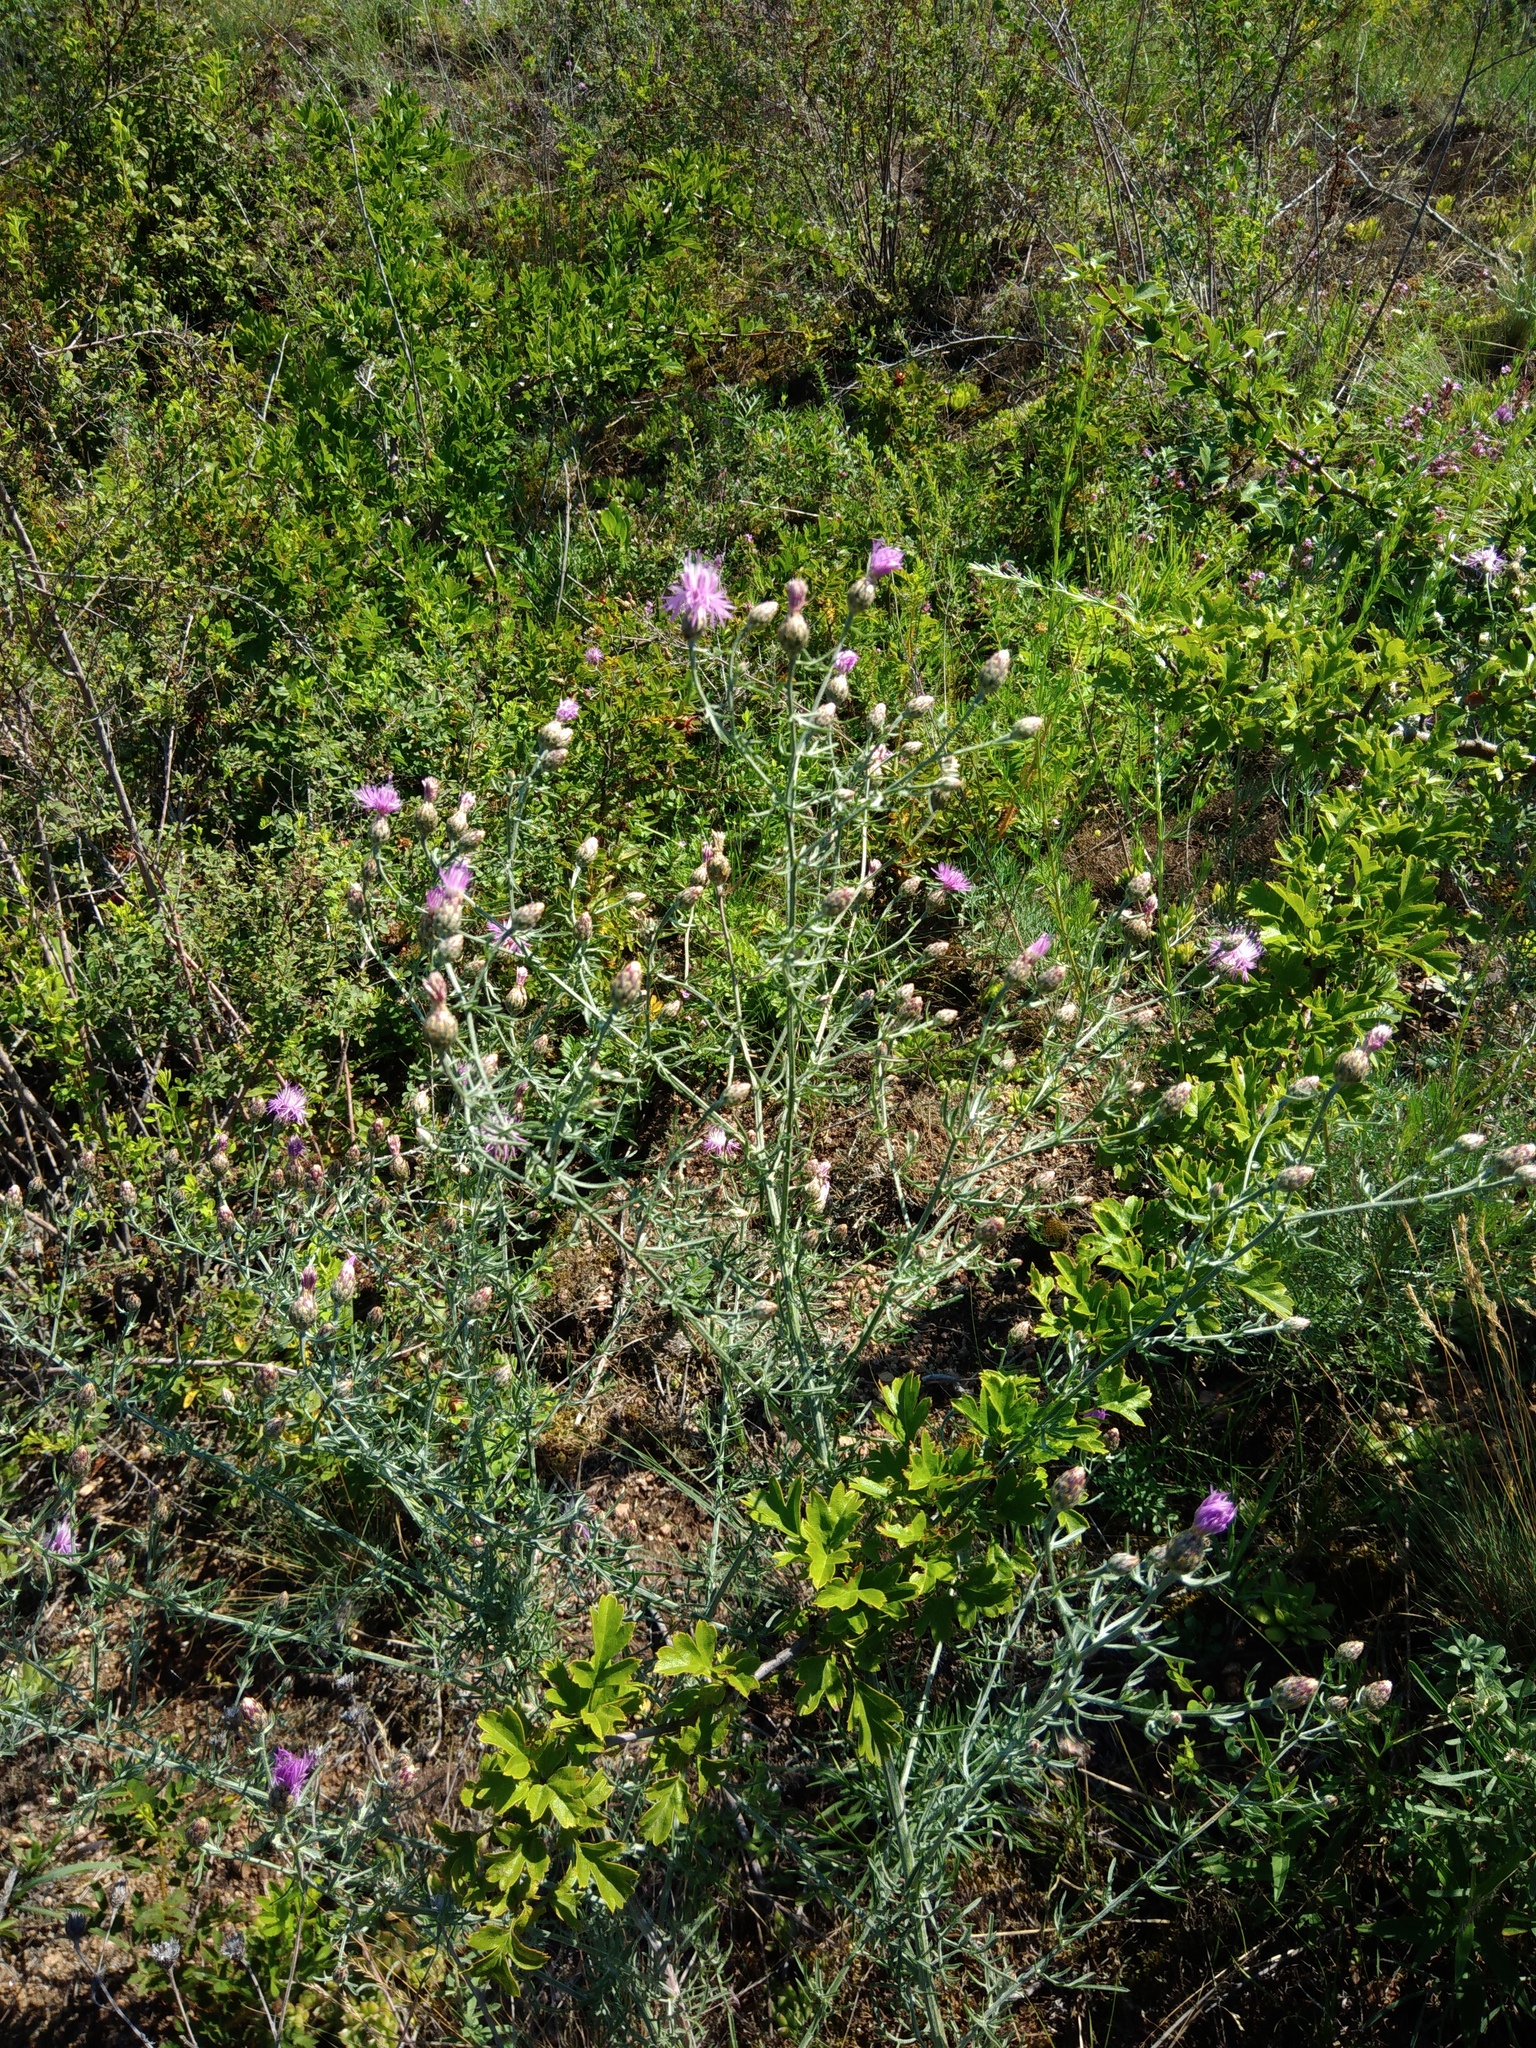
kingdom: Plantae
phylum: Tracheophyta
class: Magnoliopsida
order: Asterales
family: Asteraceae
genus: Centaurea
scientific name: Centaurea stoebe
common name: Spotted knapweed
